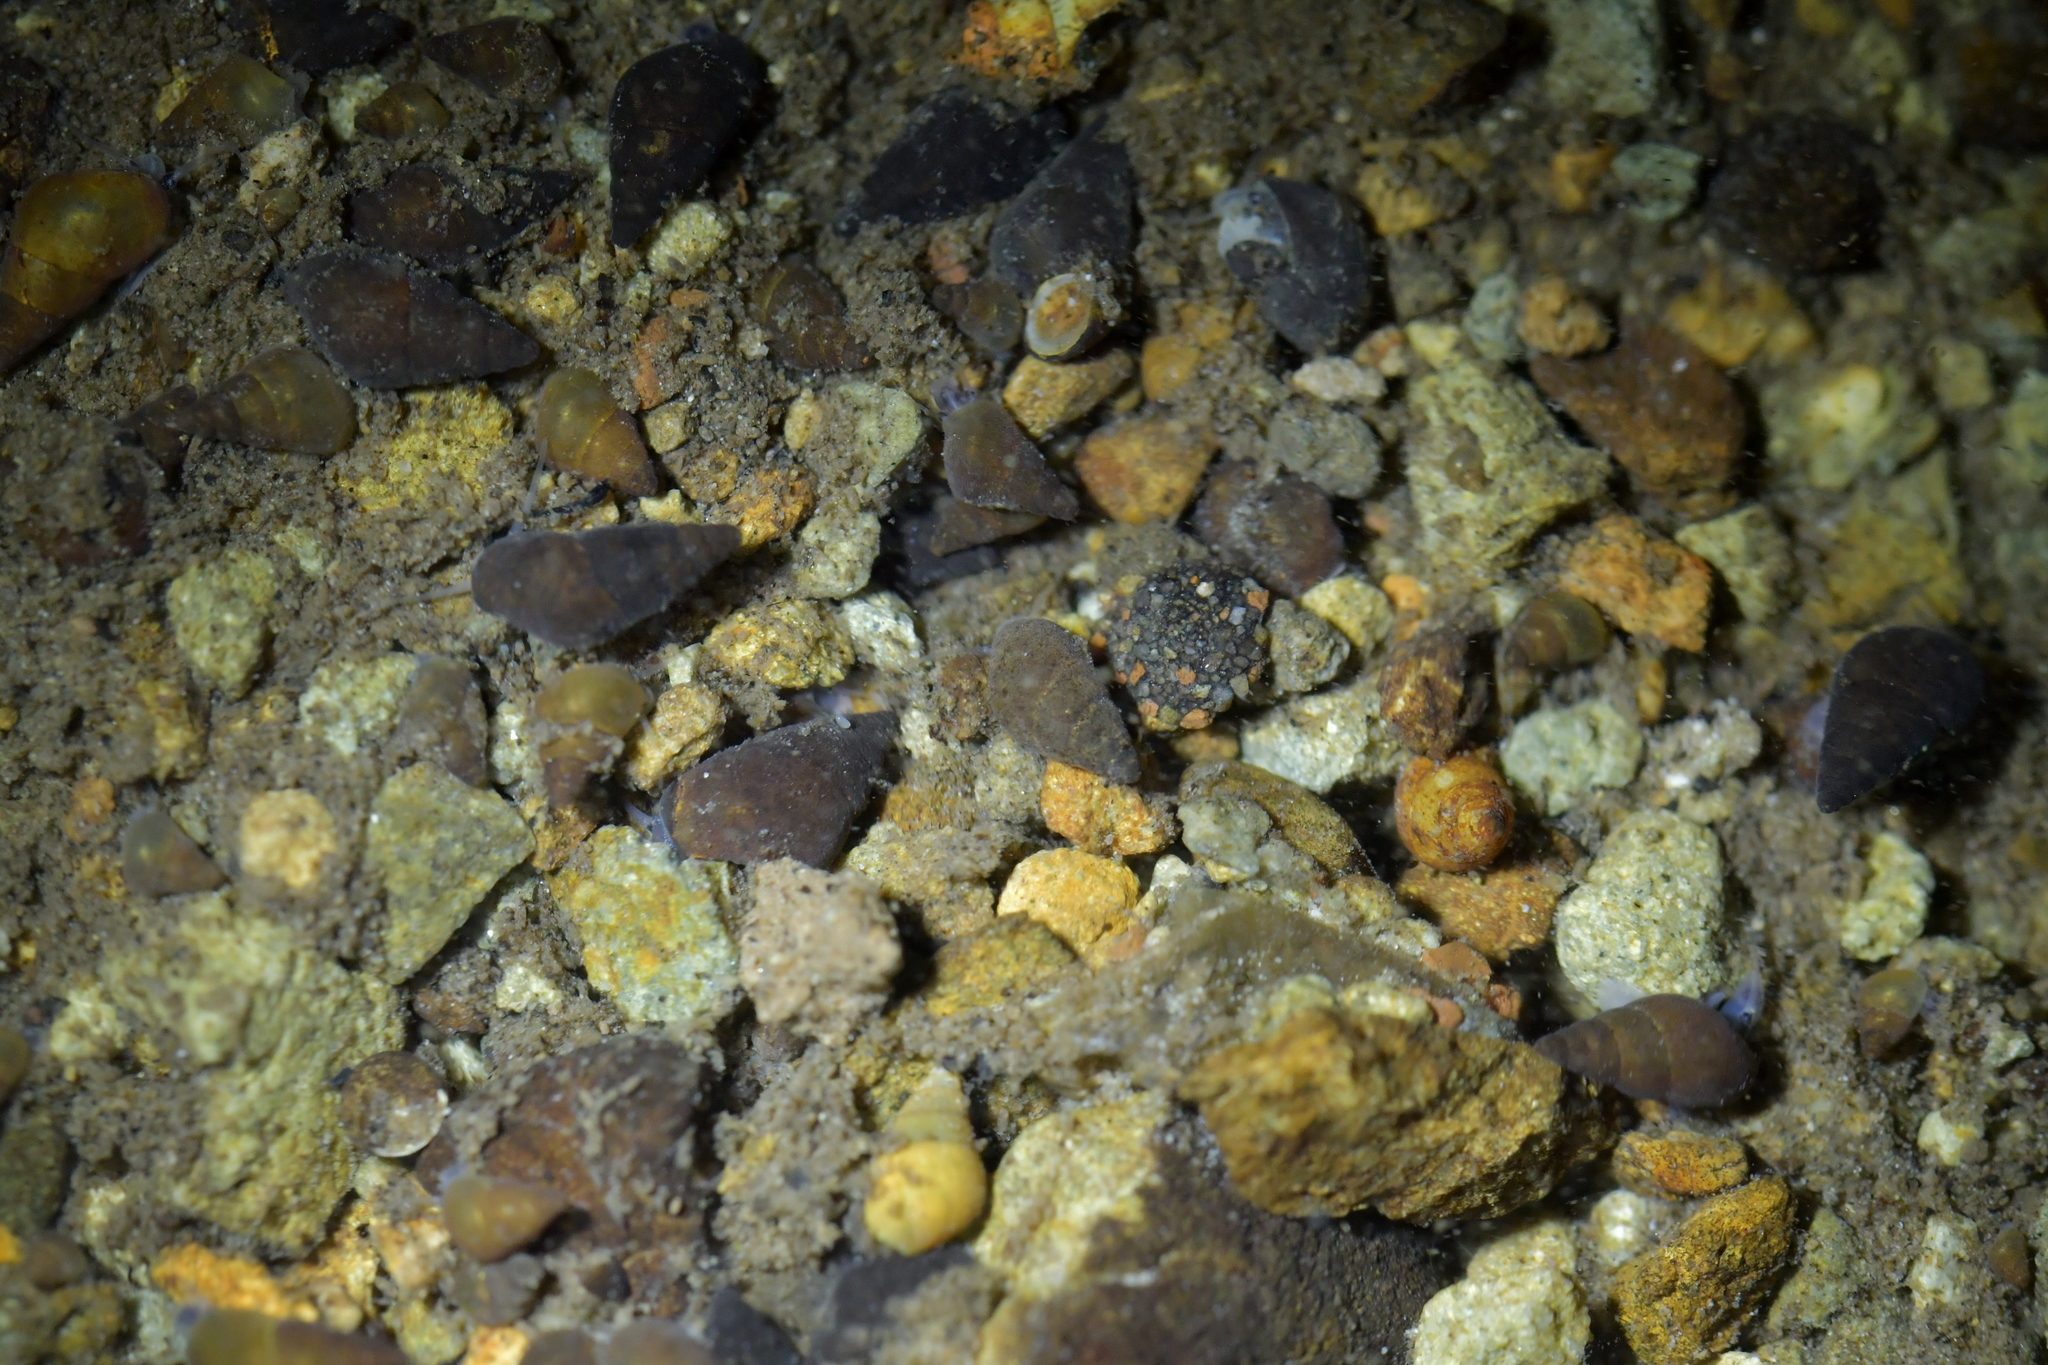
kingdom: Animalia
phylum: Mollusca
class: Gastropoda
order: Littorinimorpha
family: Tateidae
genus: Potamopyrgus
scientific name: Potamopyrgus antipodarum
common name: Jenkins' spire snail
